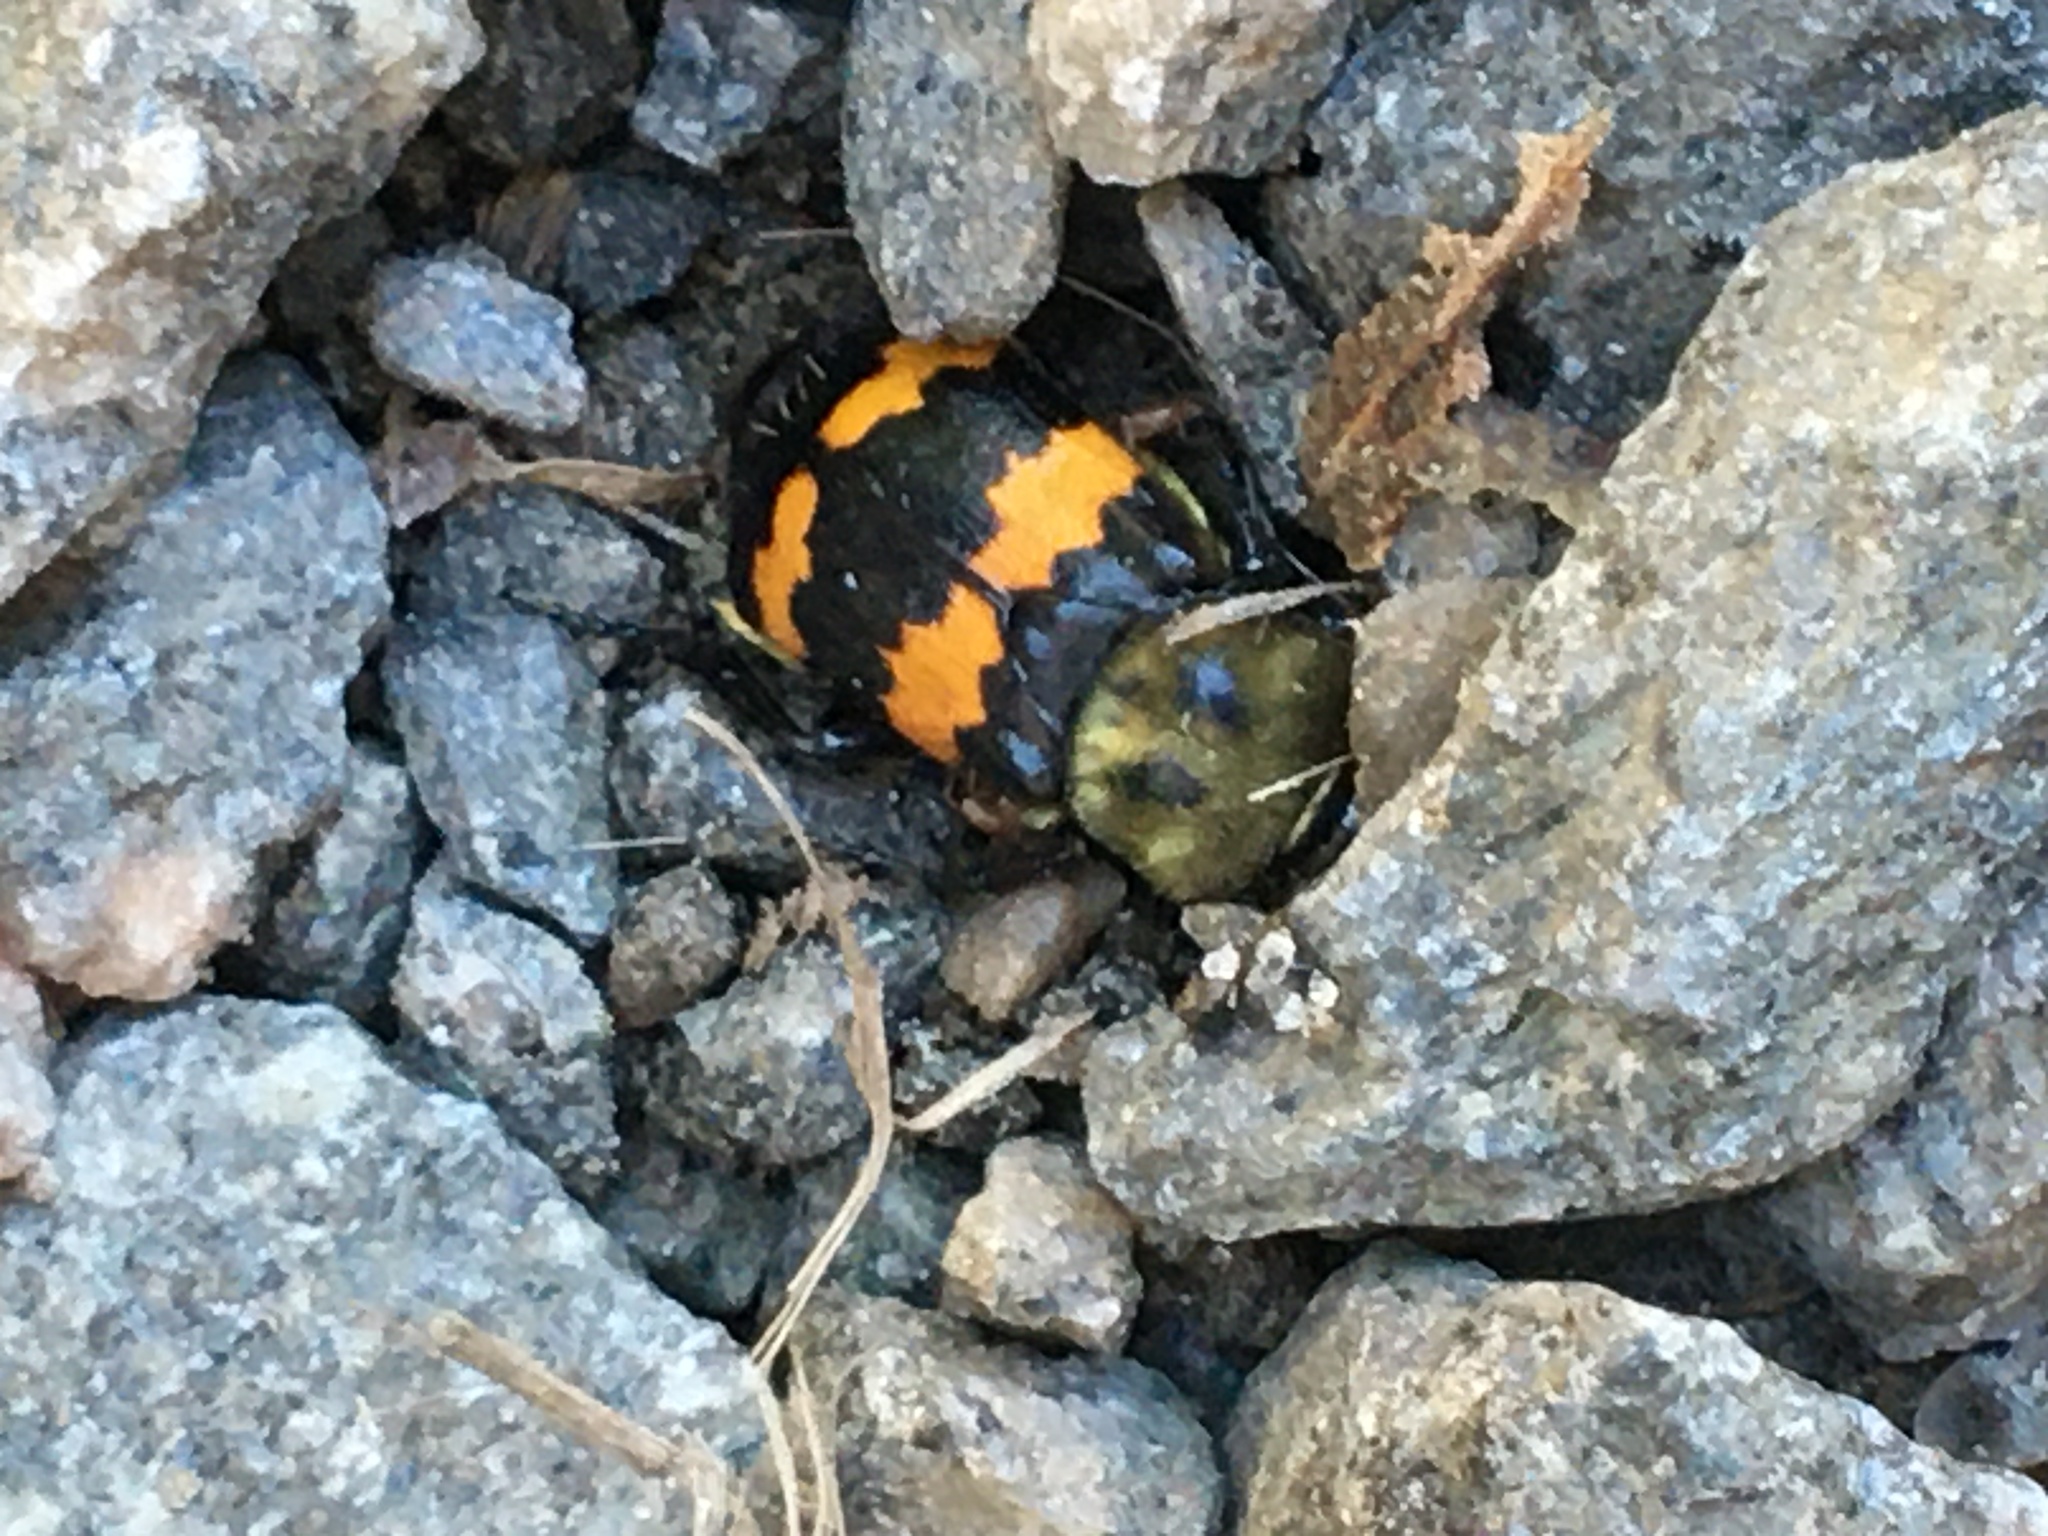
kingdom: Animalia
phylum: Arthropoda
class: Insecta
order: Coleoptera
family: Staphylinidae
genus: Nicrophorus
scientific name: Nicrophorus tomentosus
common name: Tomentose burying beetle
